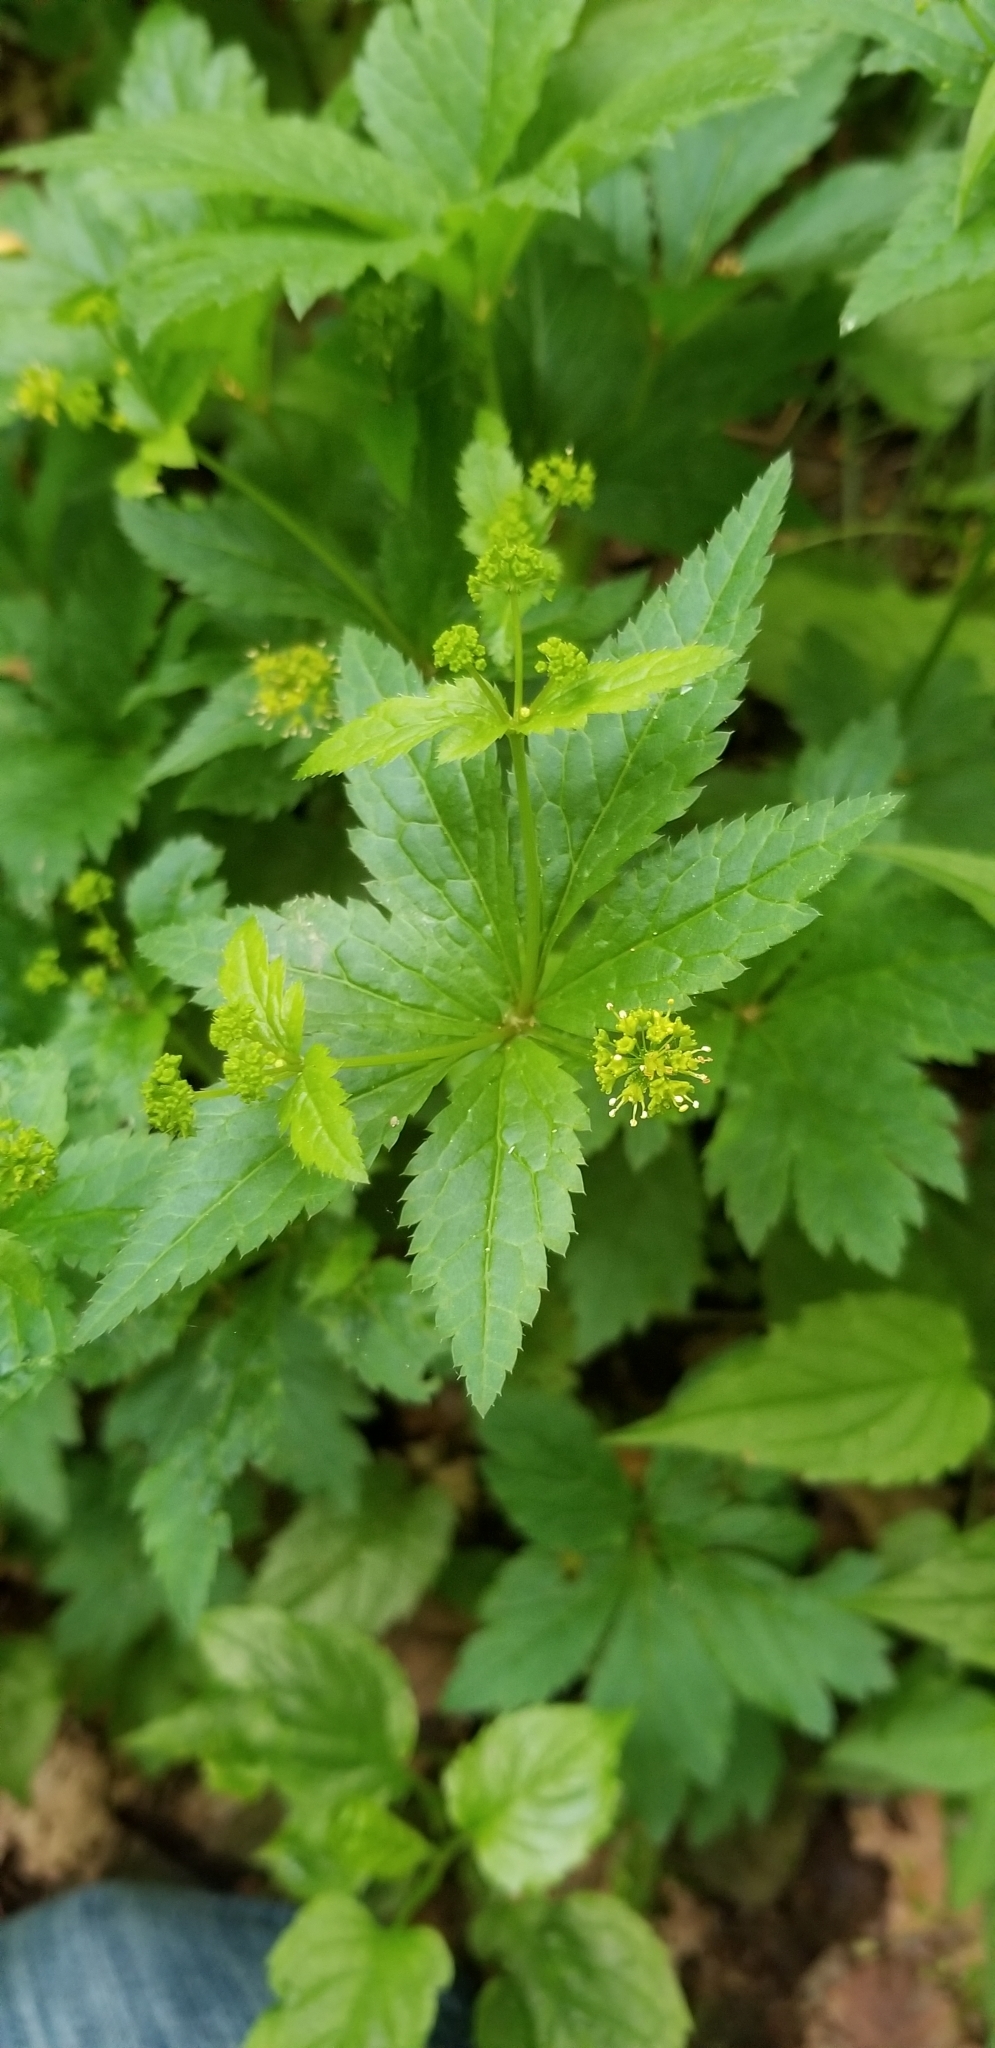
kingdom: Plantae
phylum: Tracheophyta
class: Magnoliopsida
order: Apiales
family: Apiaceae
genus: Sanicula
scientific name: Sanicula odorata
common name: Cluster sanicle
